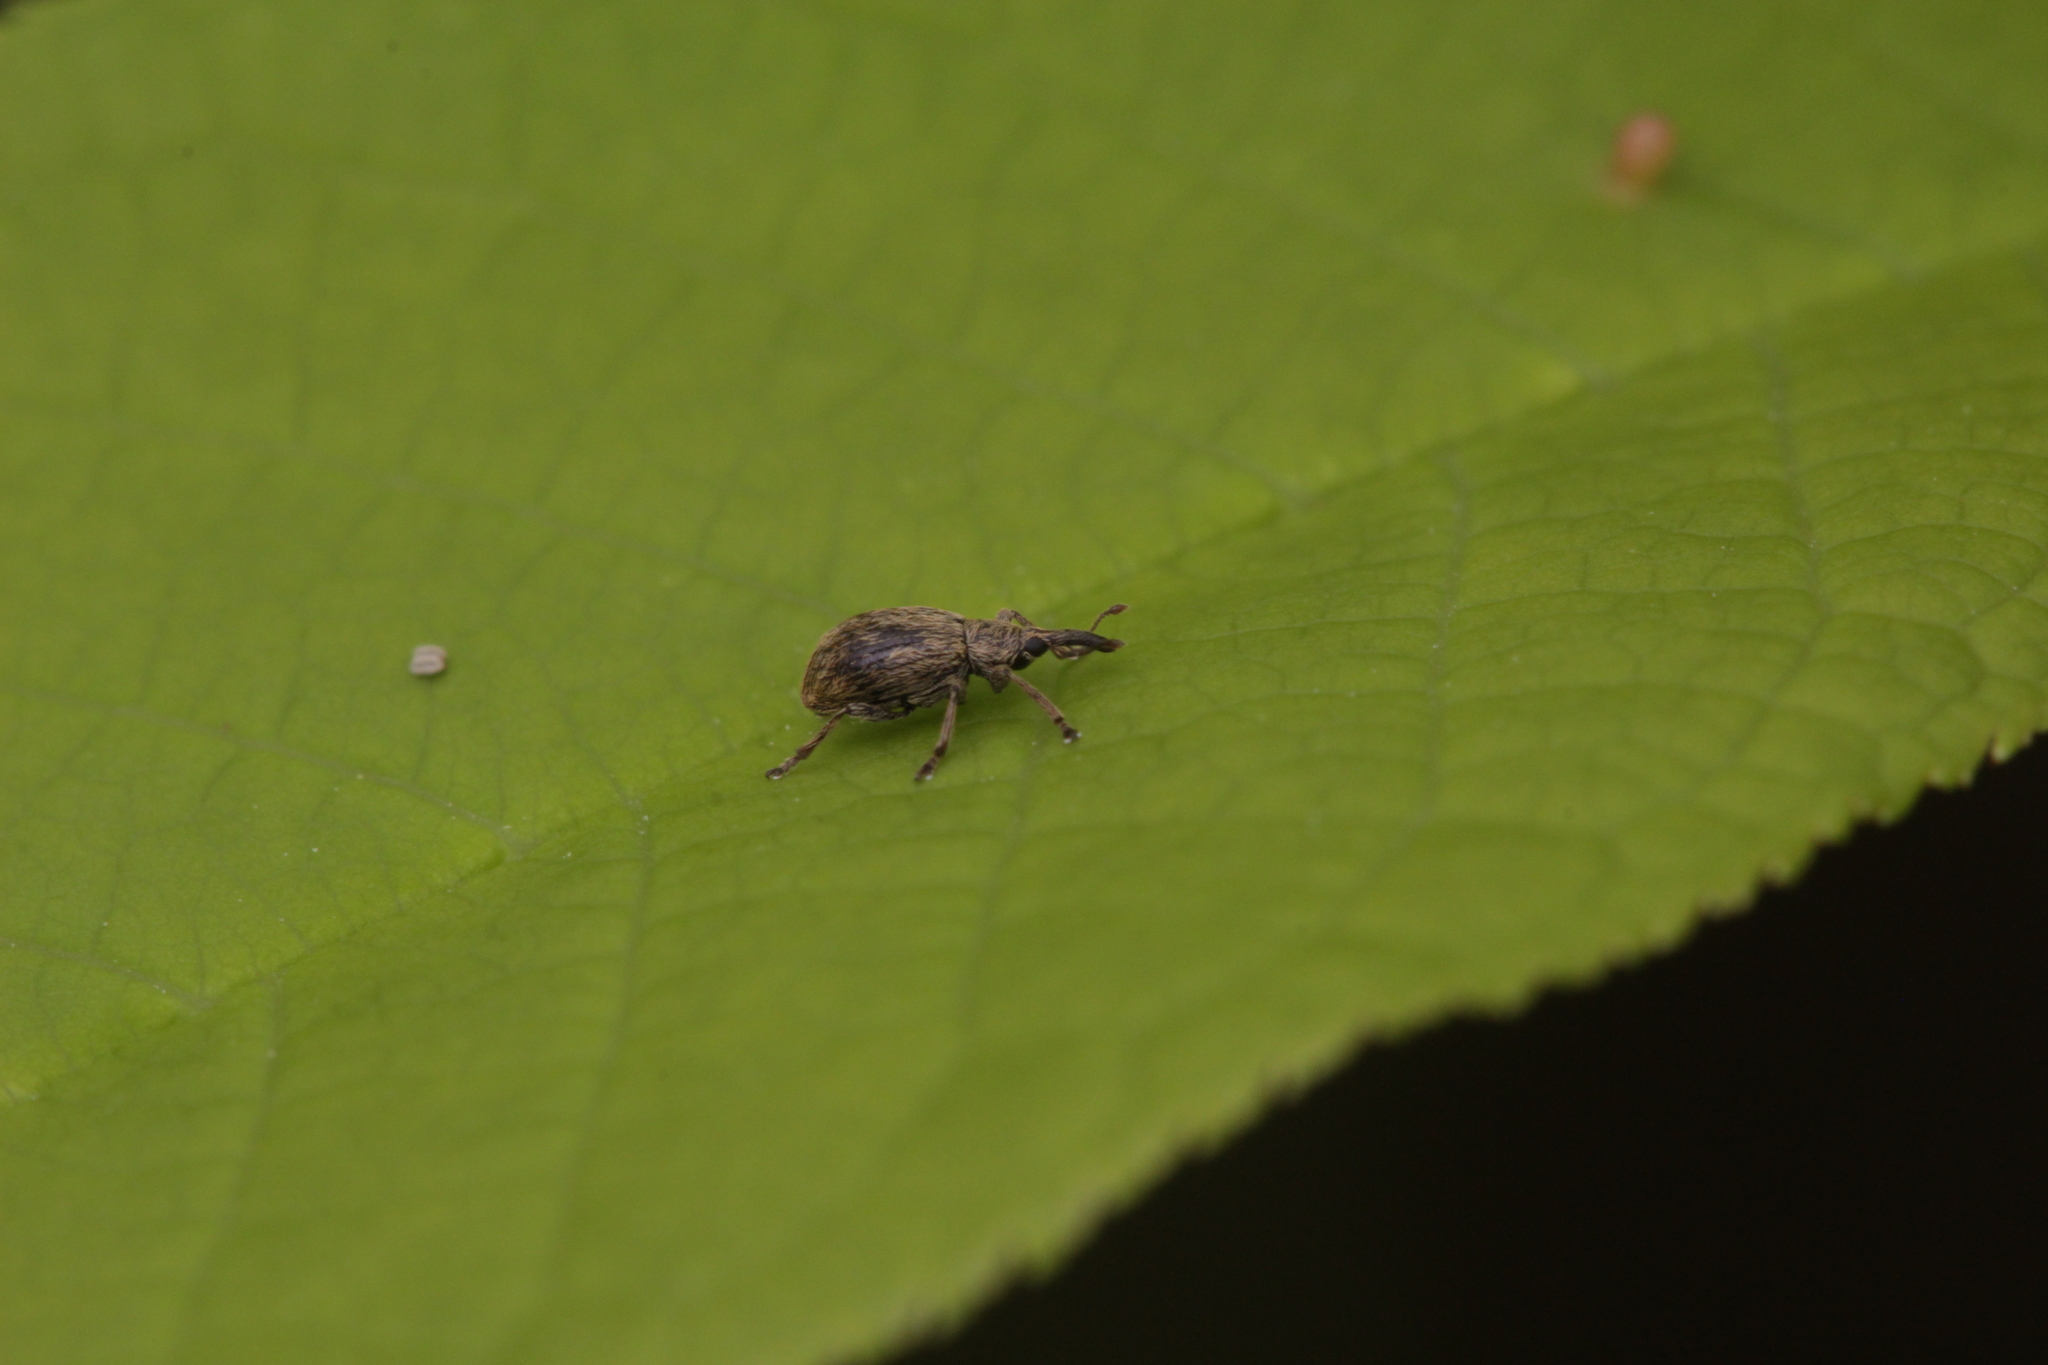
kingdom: Animalia
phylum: Arthropoda
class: Insecta
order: Coleoptera
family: Apionidae
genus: Trichopterapion
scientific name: Trichopterapion holosericeum
